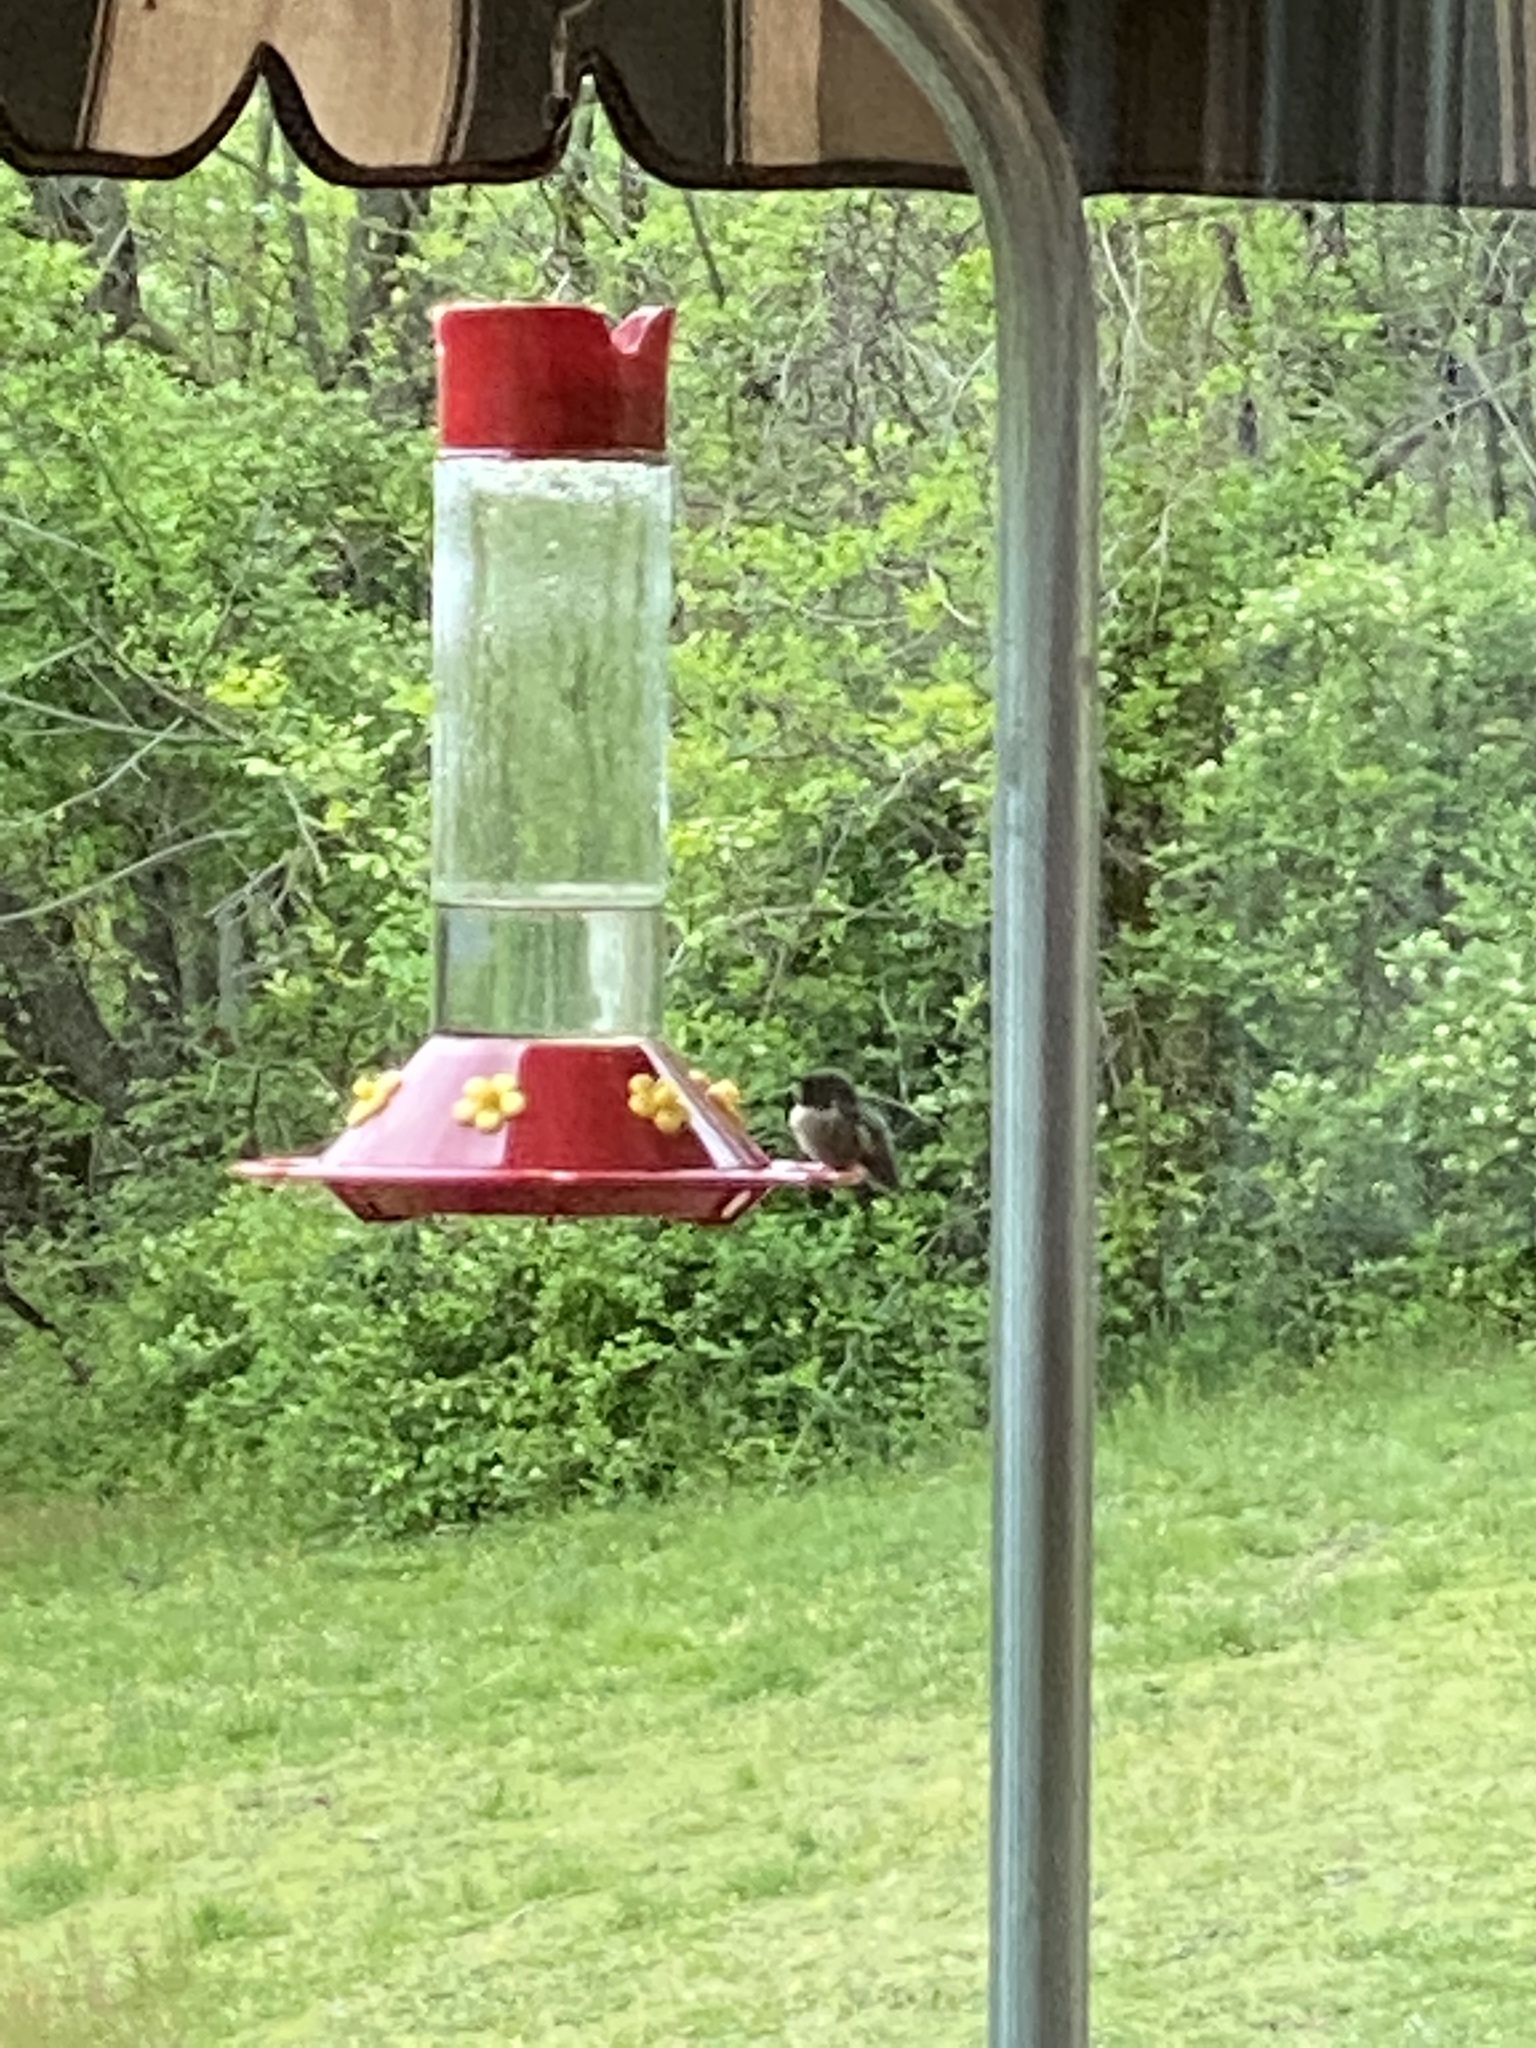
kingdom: Animalia
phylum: Chordata
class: Aves
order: Apodiformes
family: Trochilidae
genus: Archilochus
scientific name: Archilochus colubris
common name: Ruby-throated hummingbird
